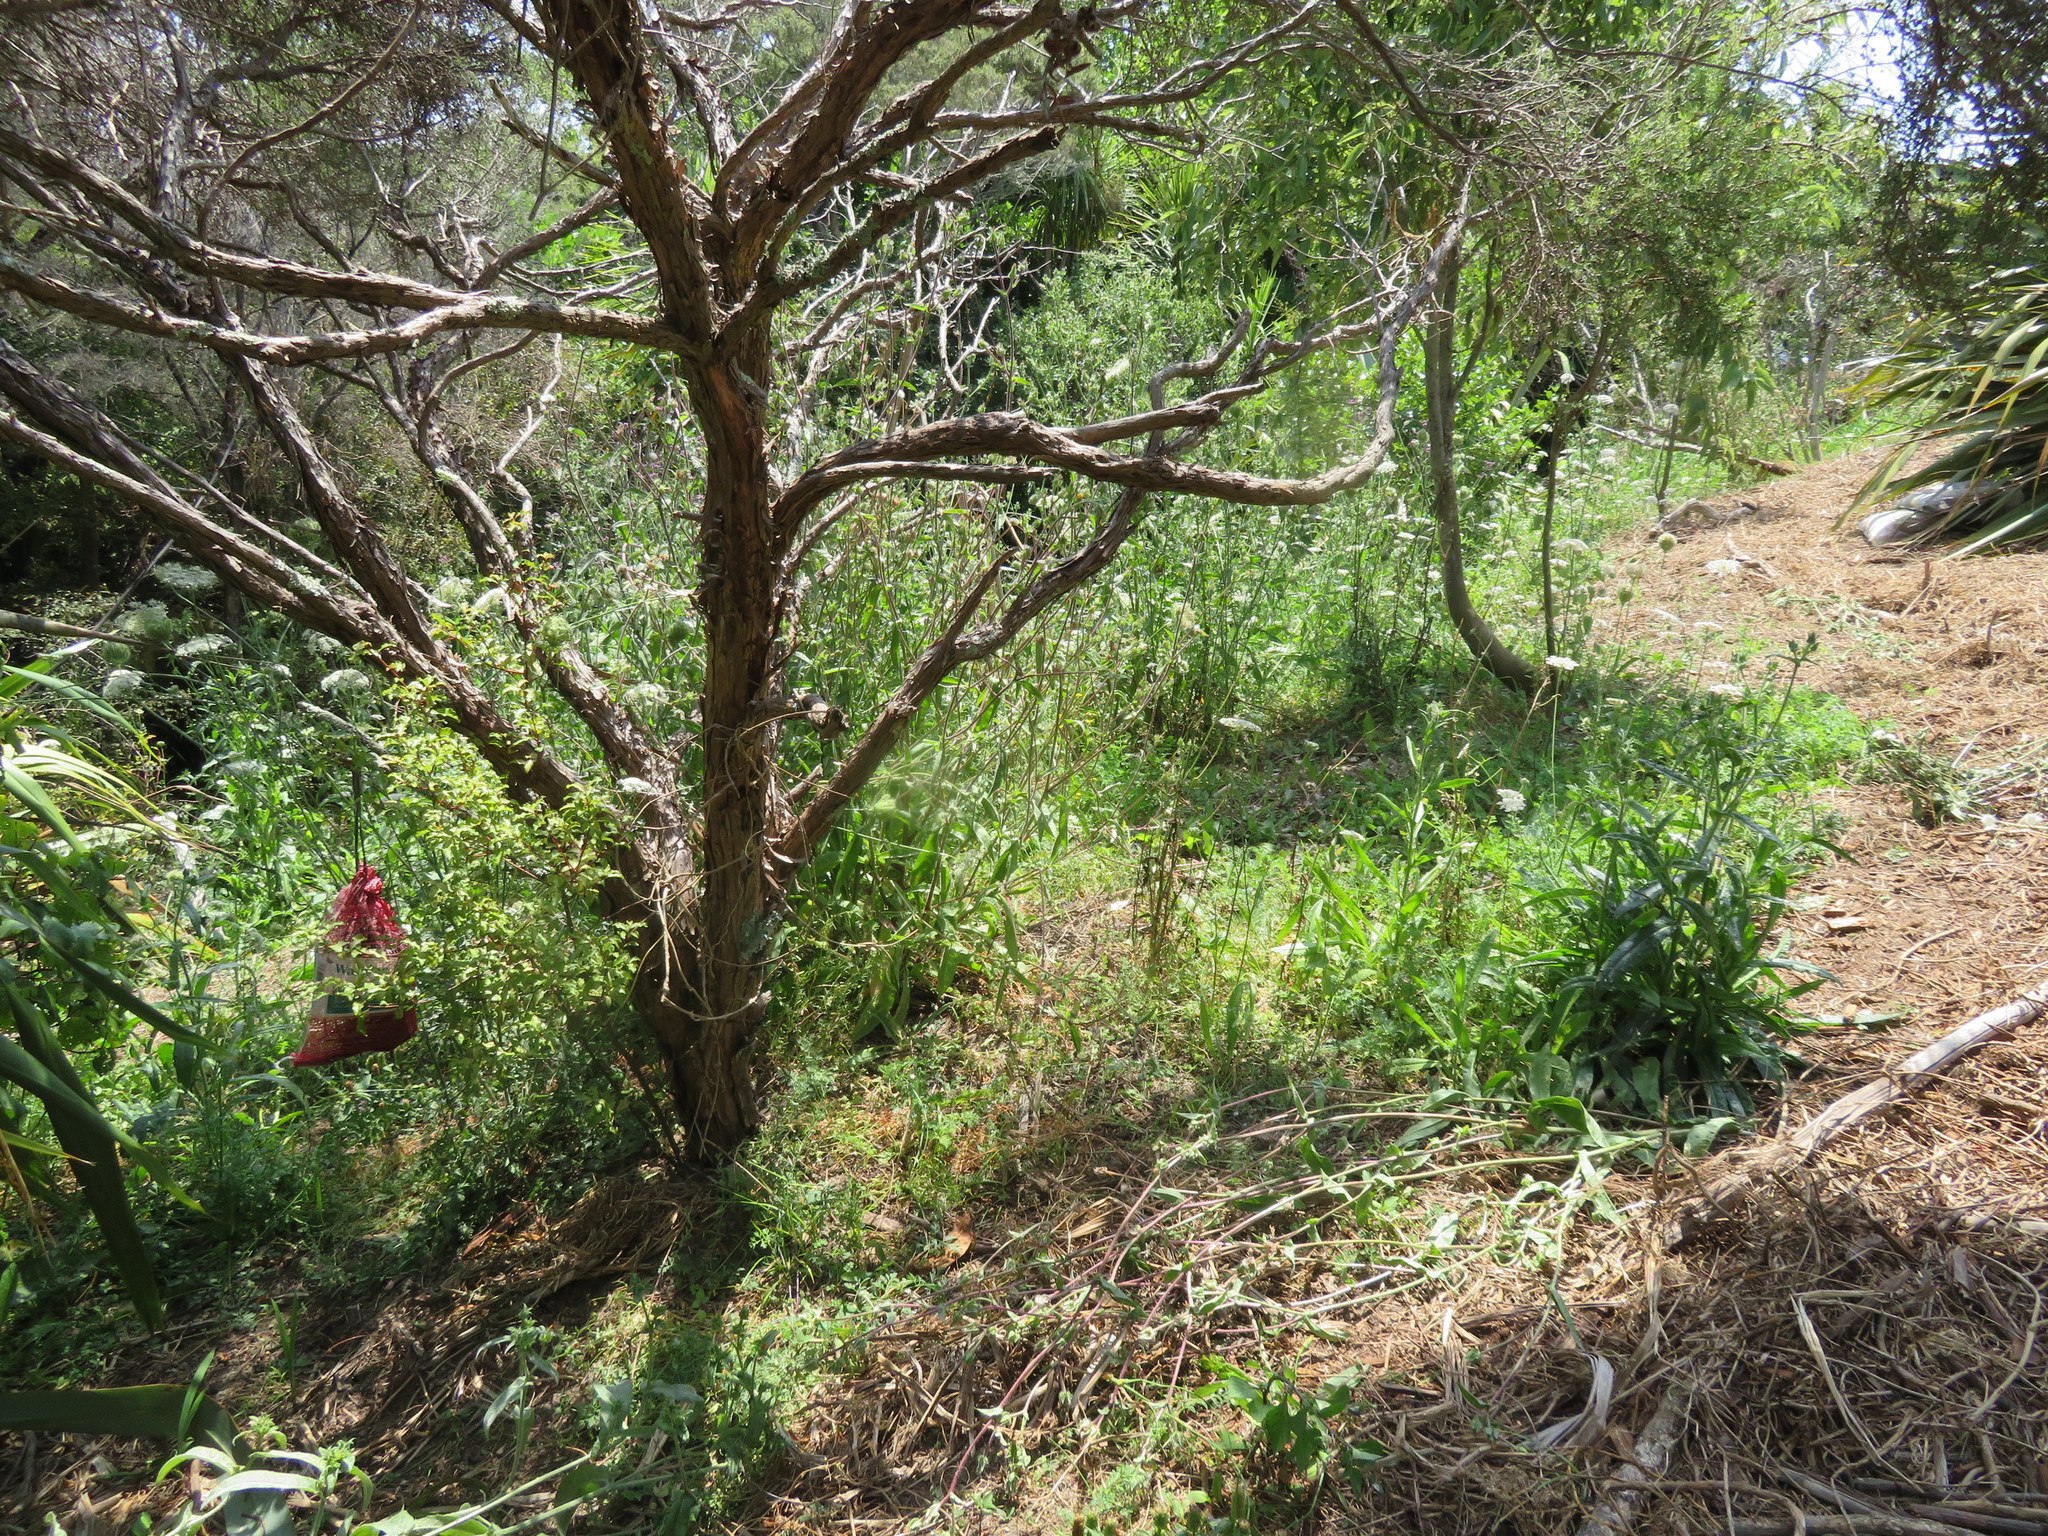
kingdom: Plantae
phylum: Tracheophyta
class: Magnoliopsida
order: Ericales
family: Primulaceae
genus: Myrsine
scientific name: Myrsine australis
